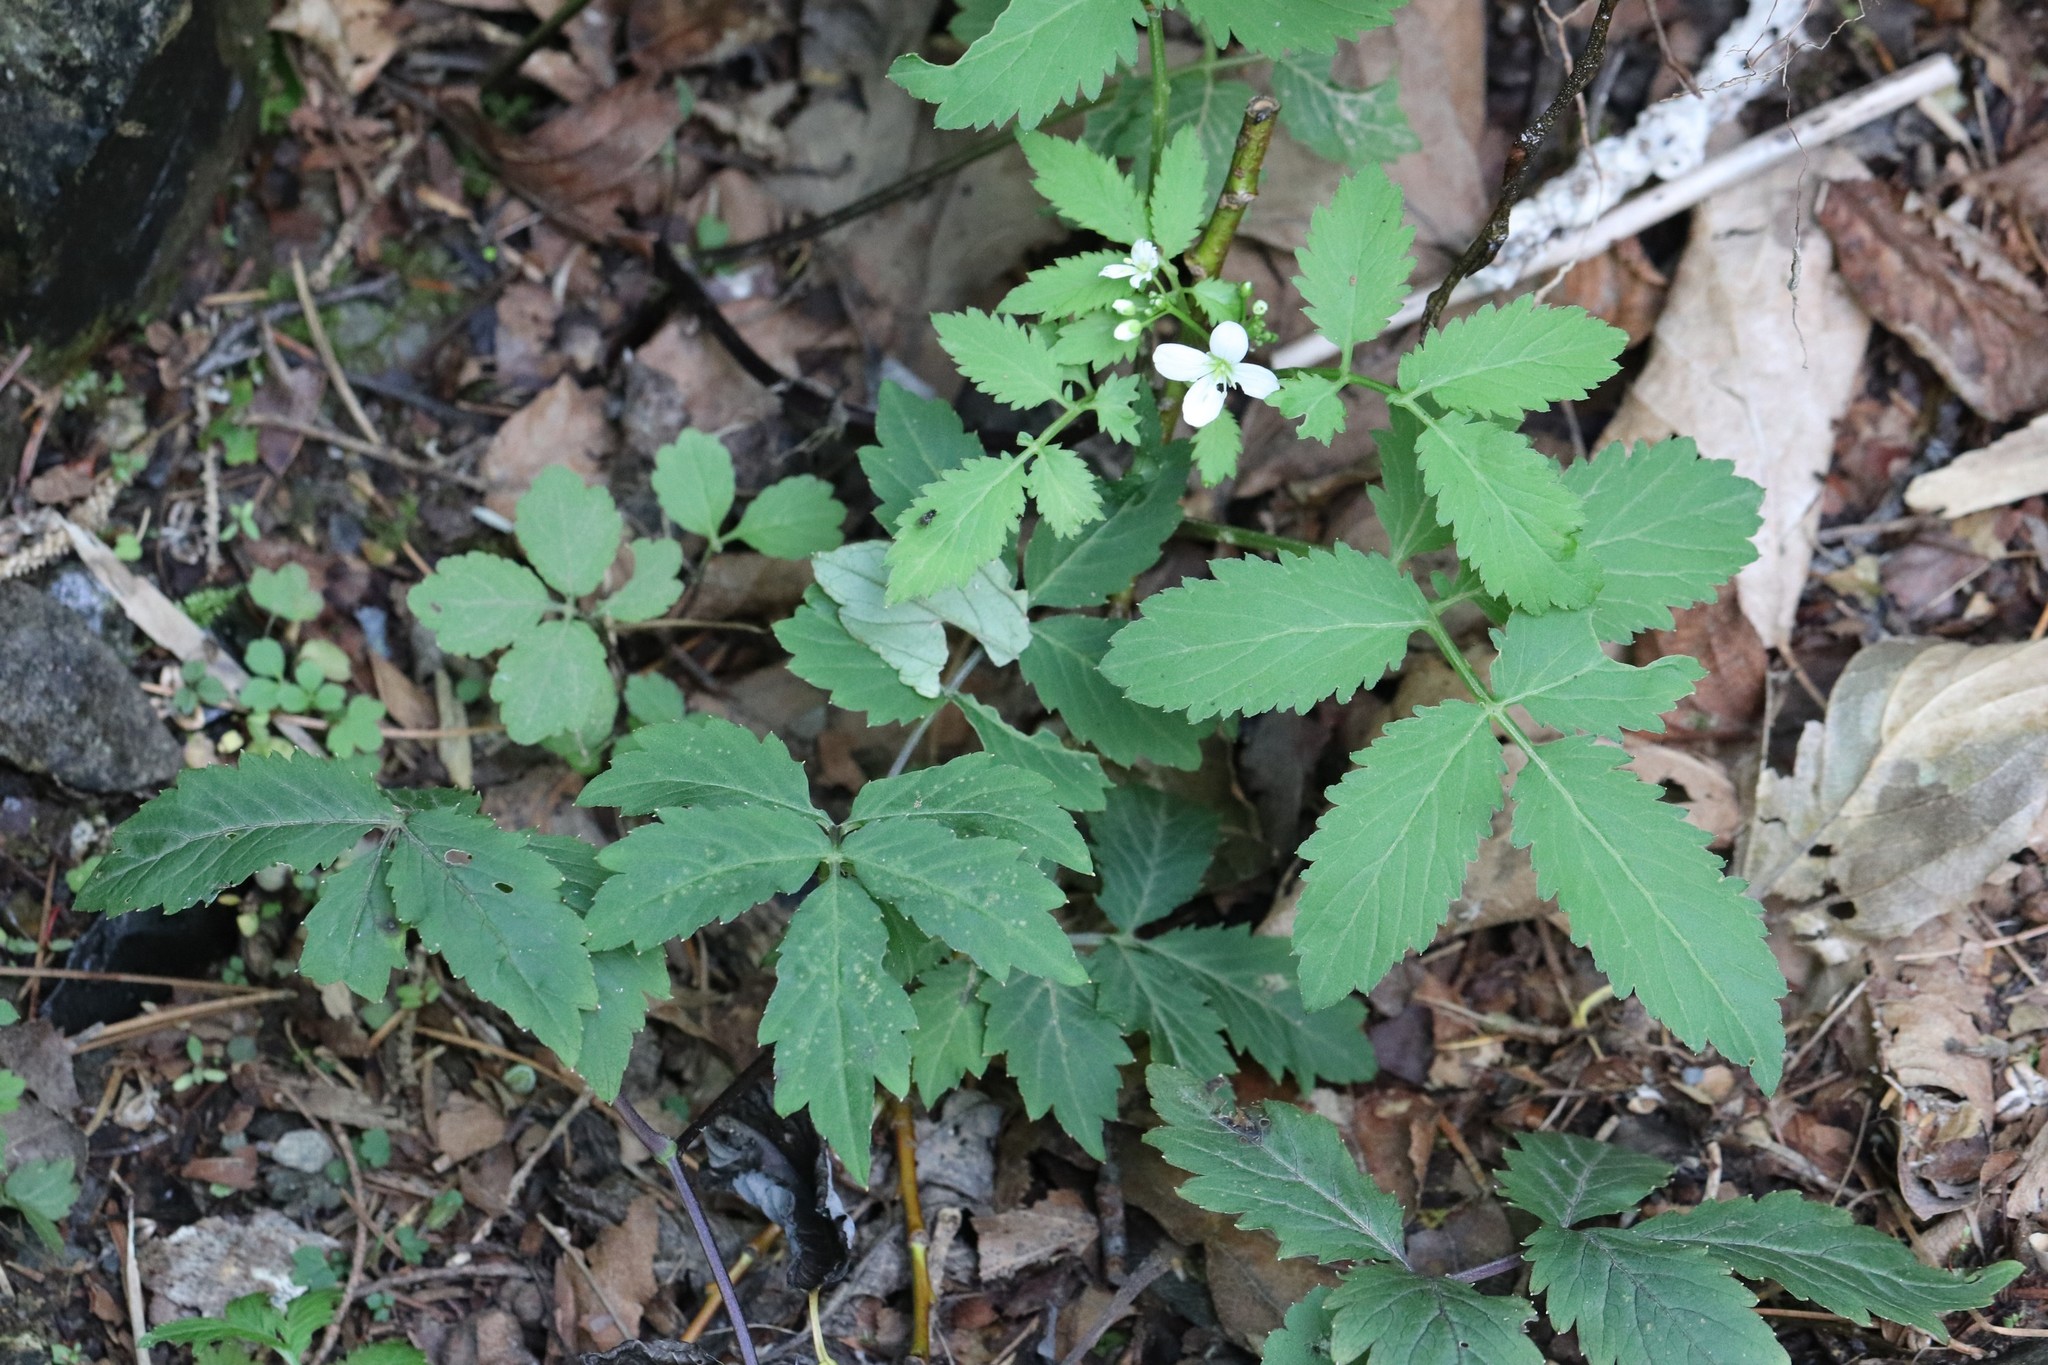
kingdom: Plantae
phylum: Tracheophyta
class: Magnoliopsida
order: Brassicales
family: Brassicaceae
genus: Cardamine
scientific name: Cardamine macrophylla
